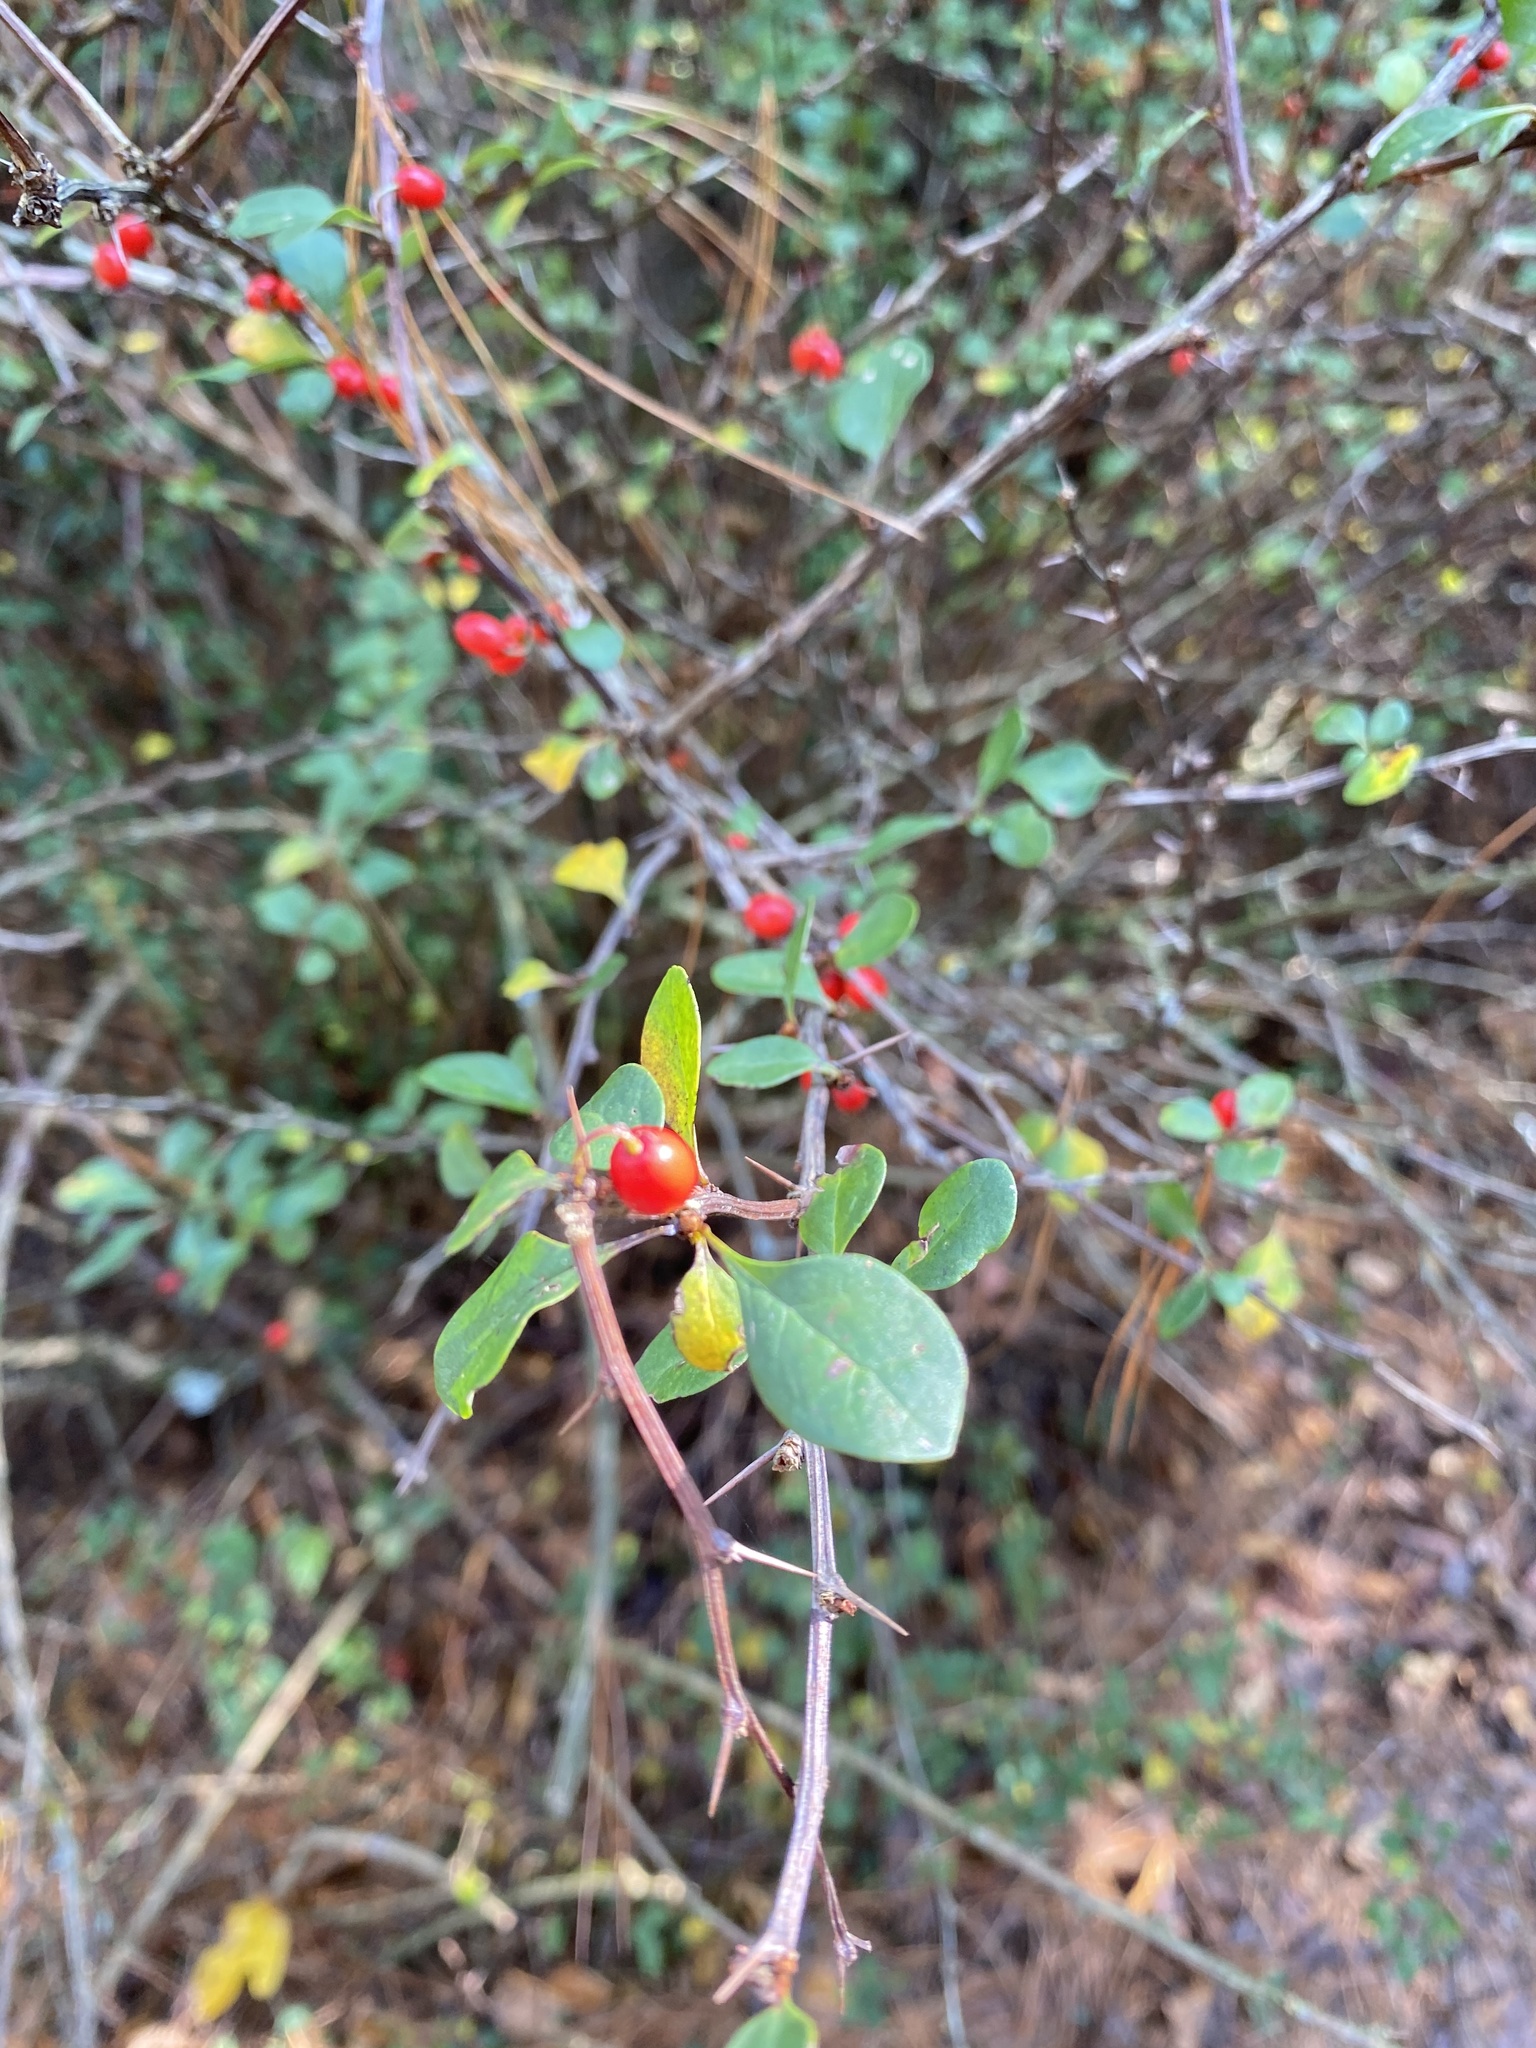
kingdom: Plantae
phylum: Tracheophyta
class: Magnoliopsida
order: Ranunculales
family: Berberidaceae
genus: Berberis
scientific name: Berberis thunbergii
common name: Japanese barberry
